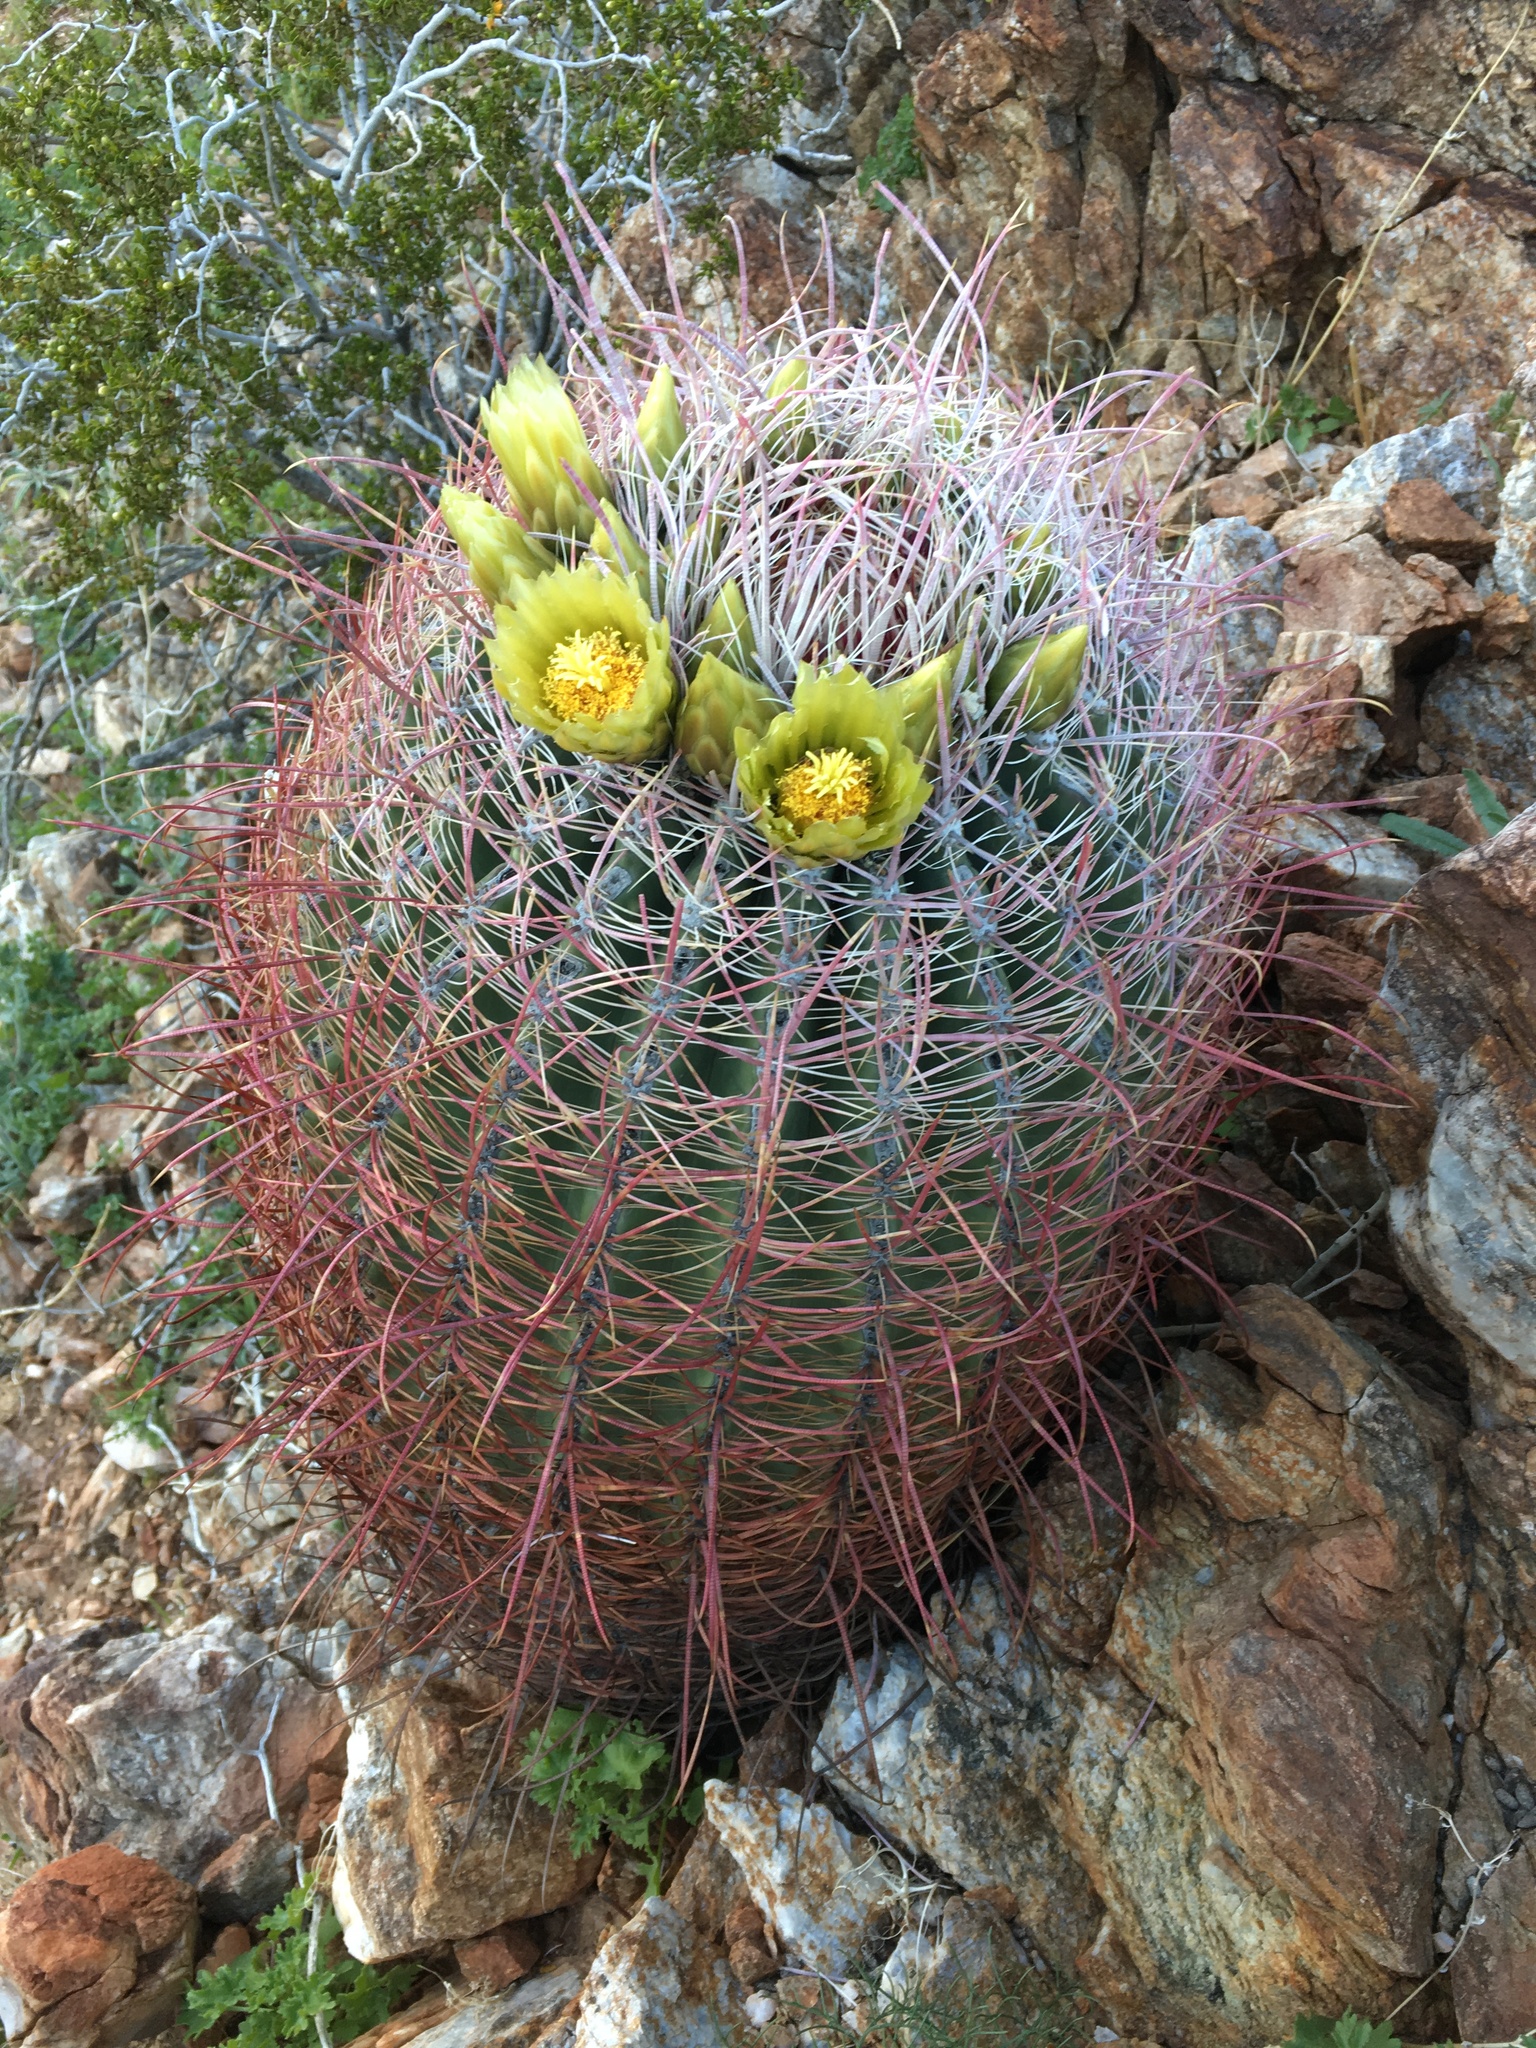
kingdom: Plantae
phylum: Tracheophyta
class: Magnoliopsida
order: Caryophyllales
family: Cactaceae
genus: Ferocactus
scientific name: Ferocactus cylindraceus
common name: California barrel cactus
